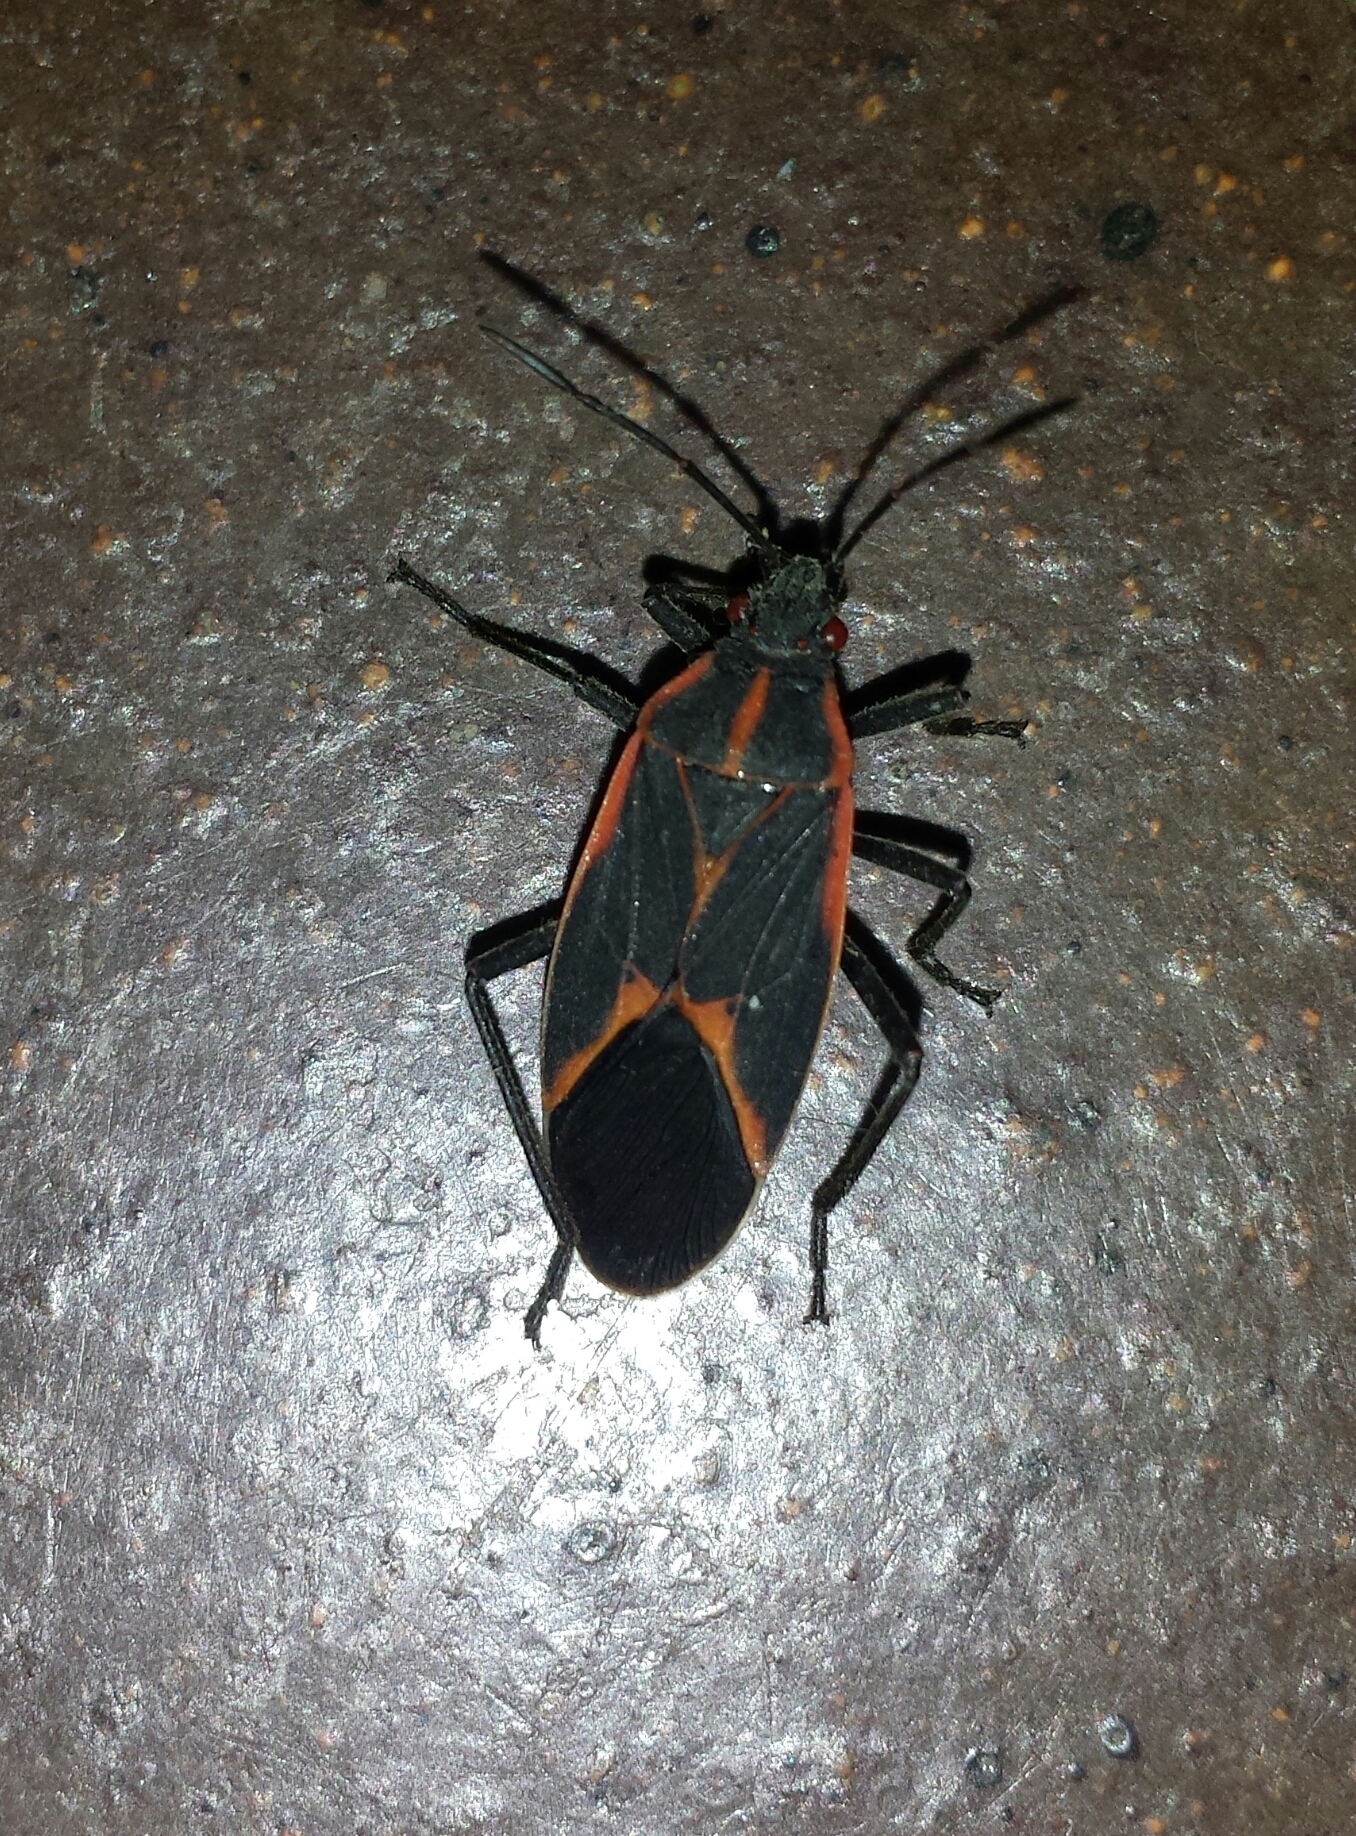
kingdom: Animalia
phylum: Arthropoda
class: Insecta
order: Hemiptera
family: Rhopalidae
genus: Boisea
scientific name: Boisea trivittata
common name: Boxelder bug
